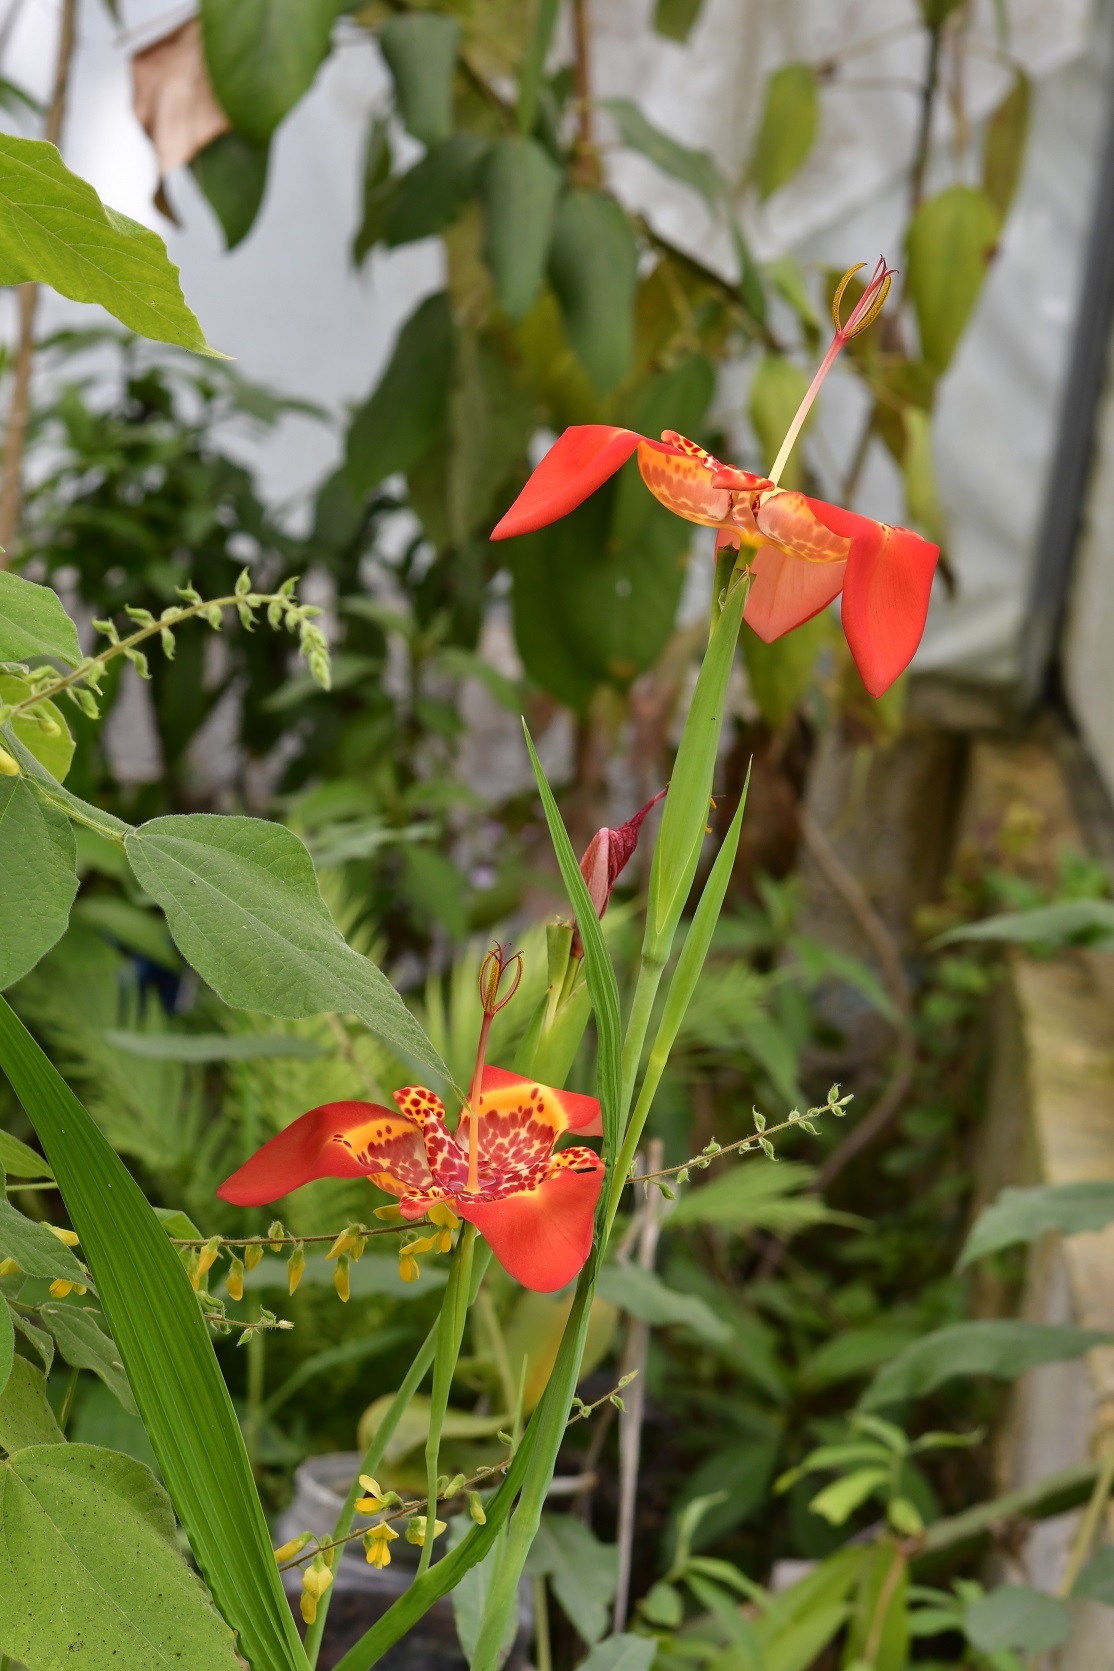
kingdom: Plantae
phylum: Tracheophyta
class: Liliopsida
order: Asparagales
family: Iridaceae
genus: Tigridia
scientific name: Tigridia pavonia
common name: Peacock-flower
